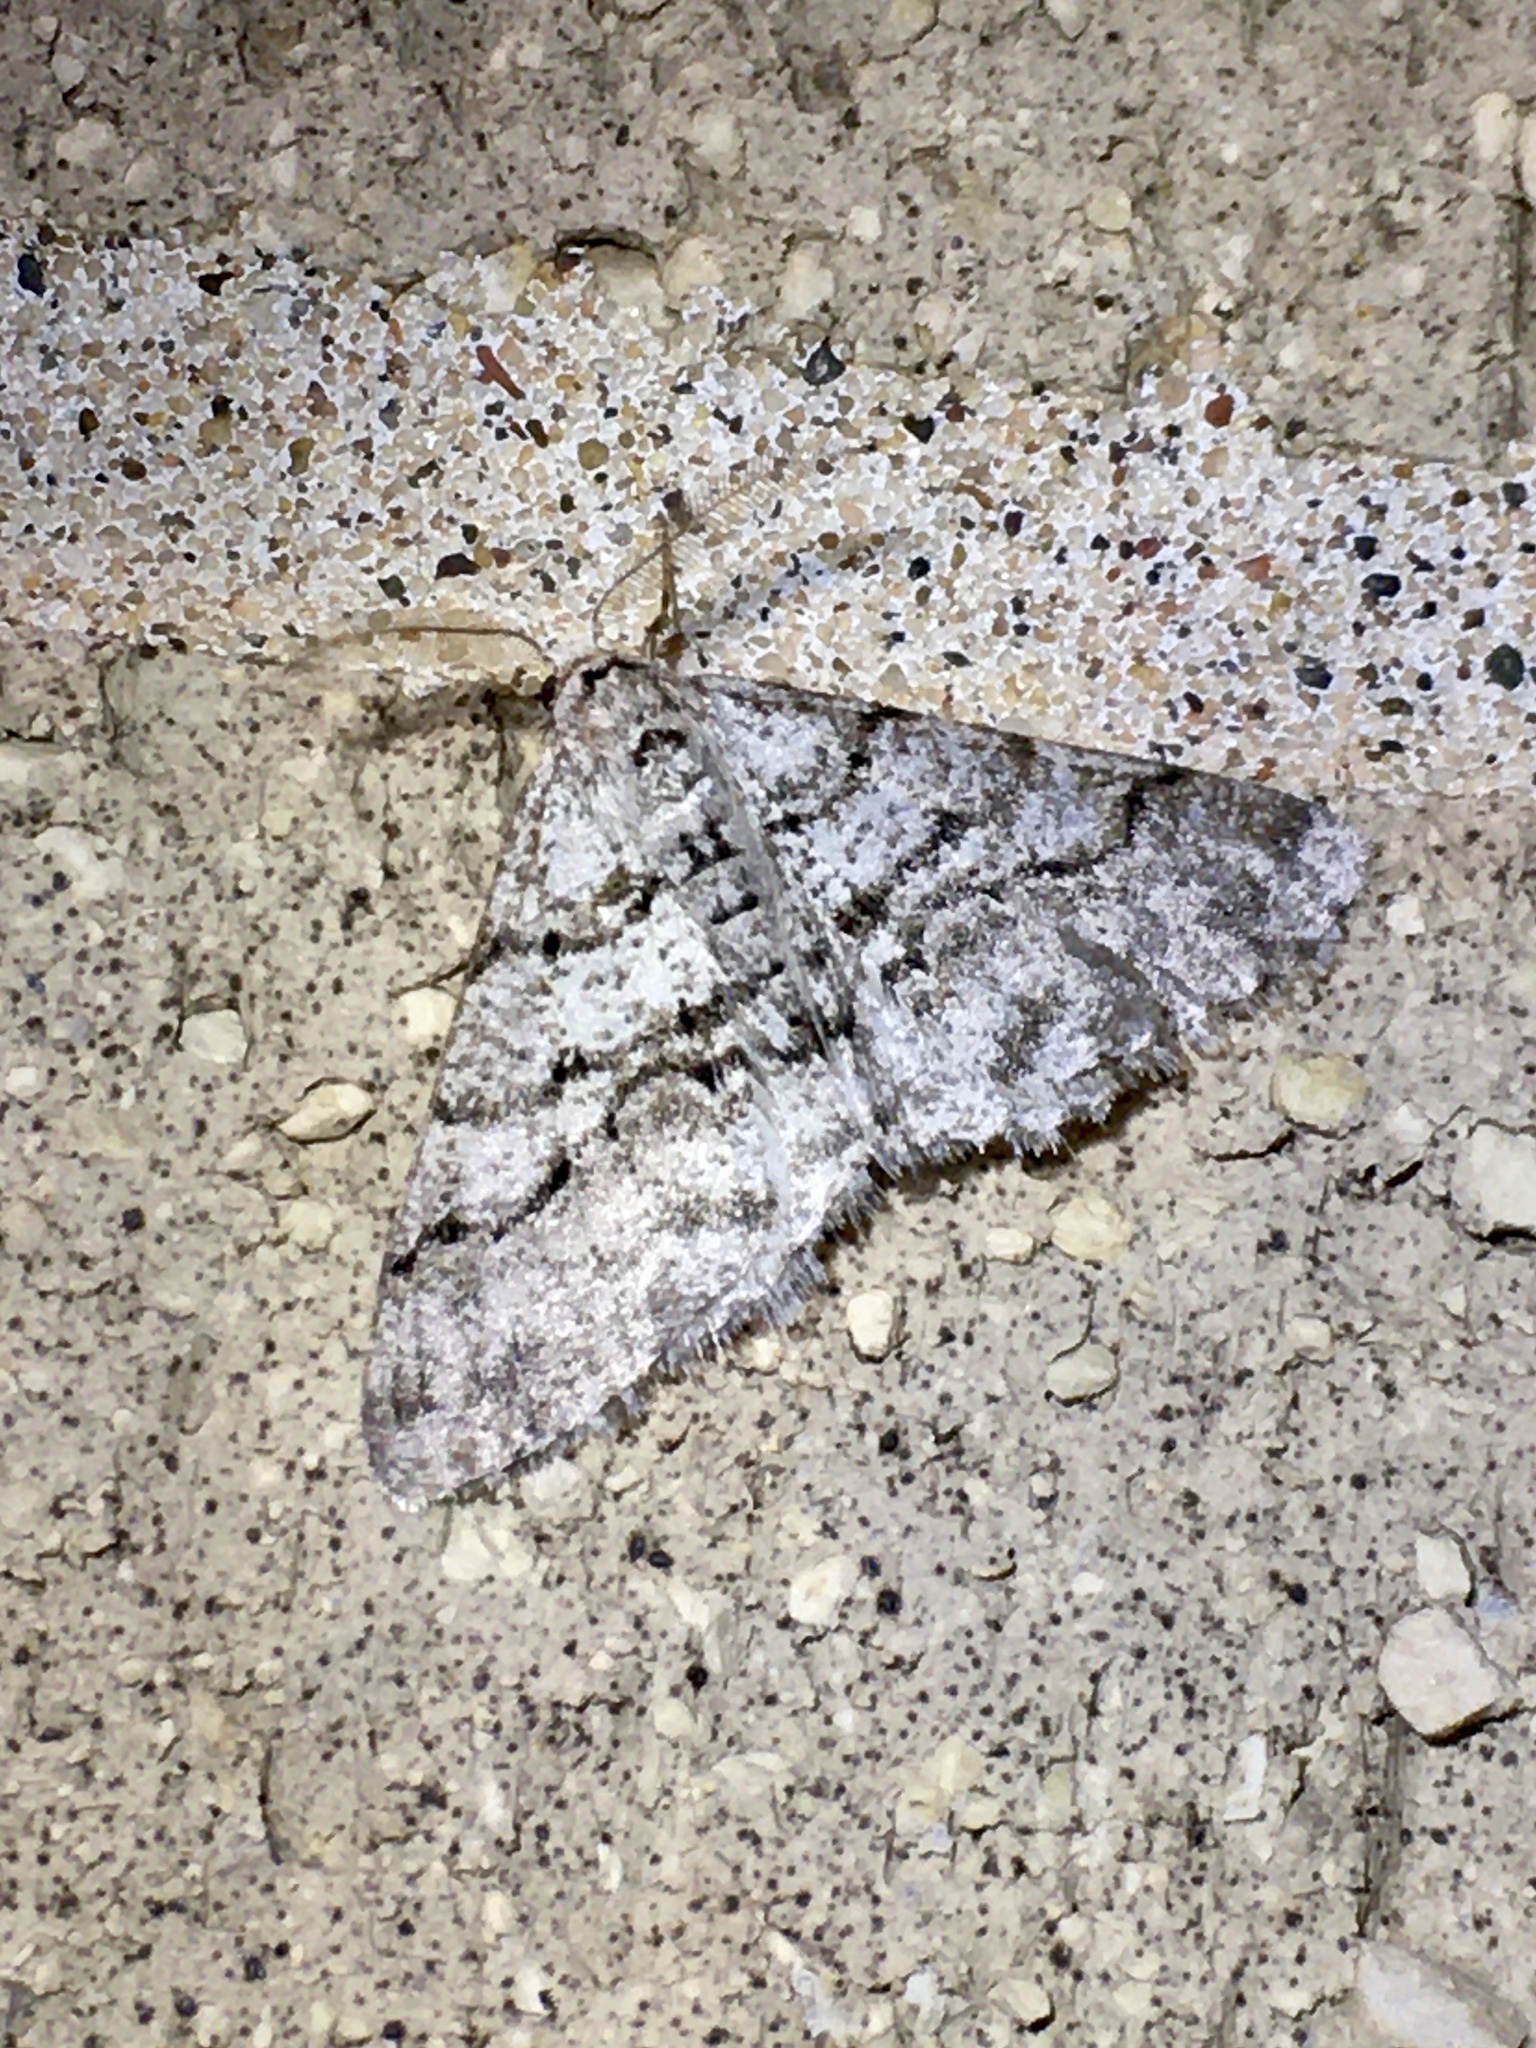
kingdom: Animalia
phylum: Arthropoda
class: Insecta
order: Lepidoptera
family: Geometridae
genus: Phigalia
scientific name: Phigalia titea
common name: Spiny looper
